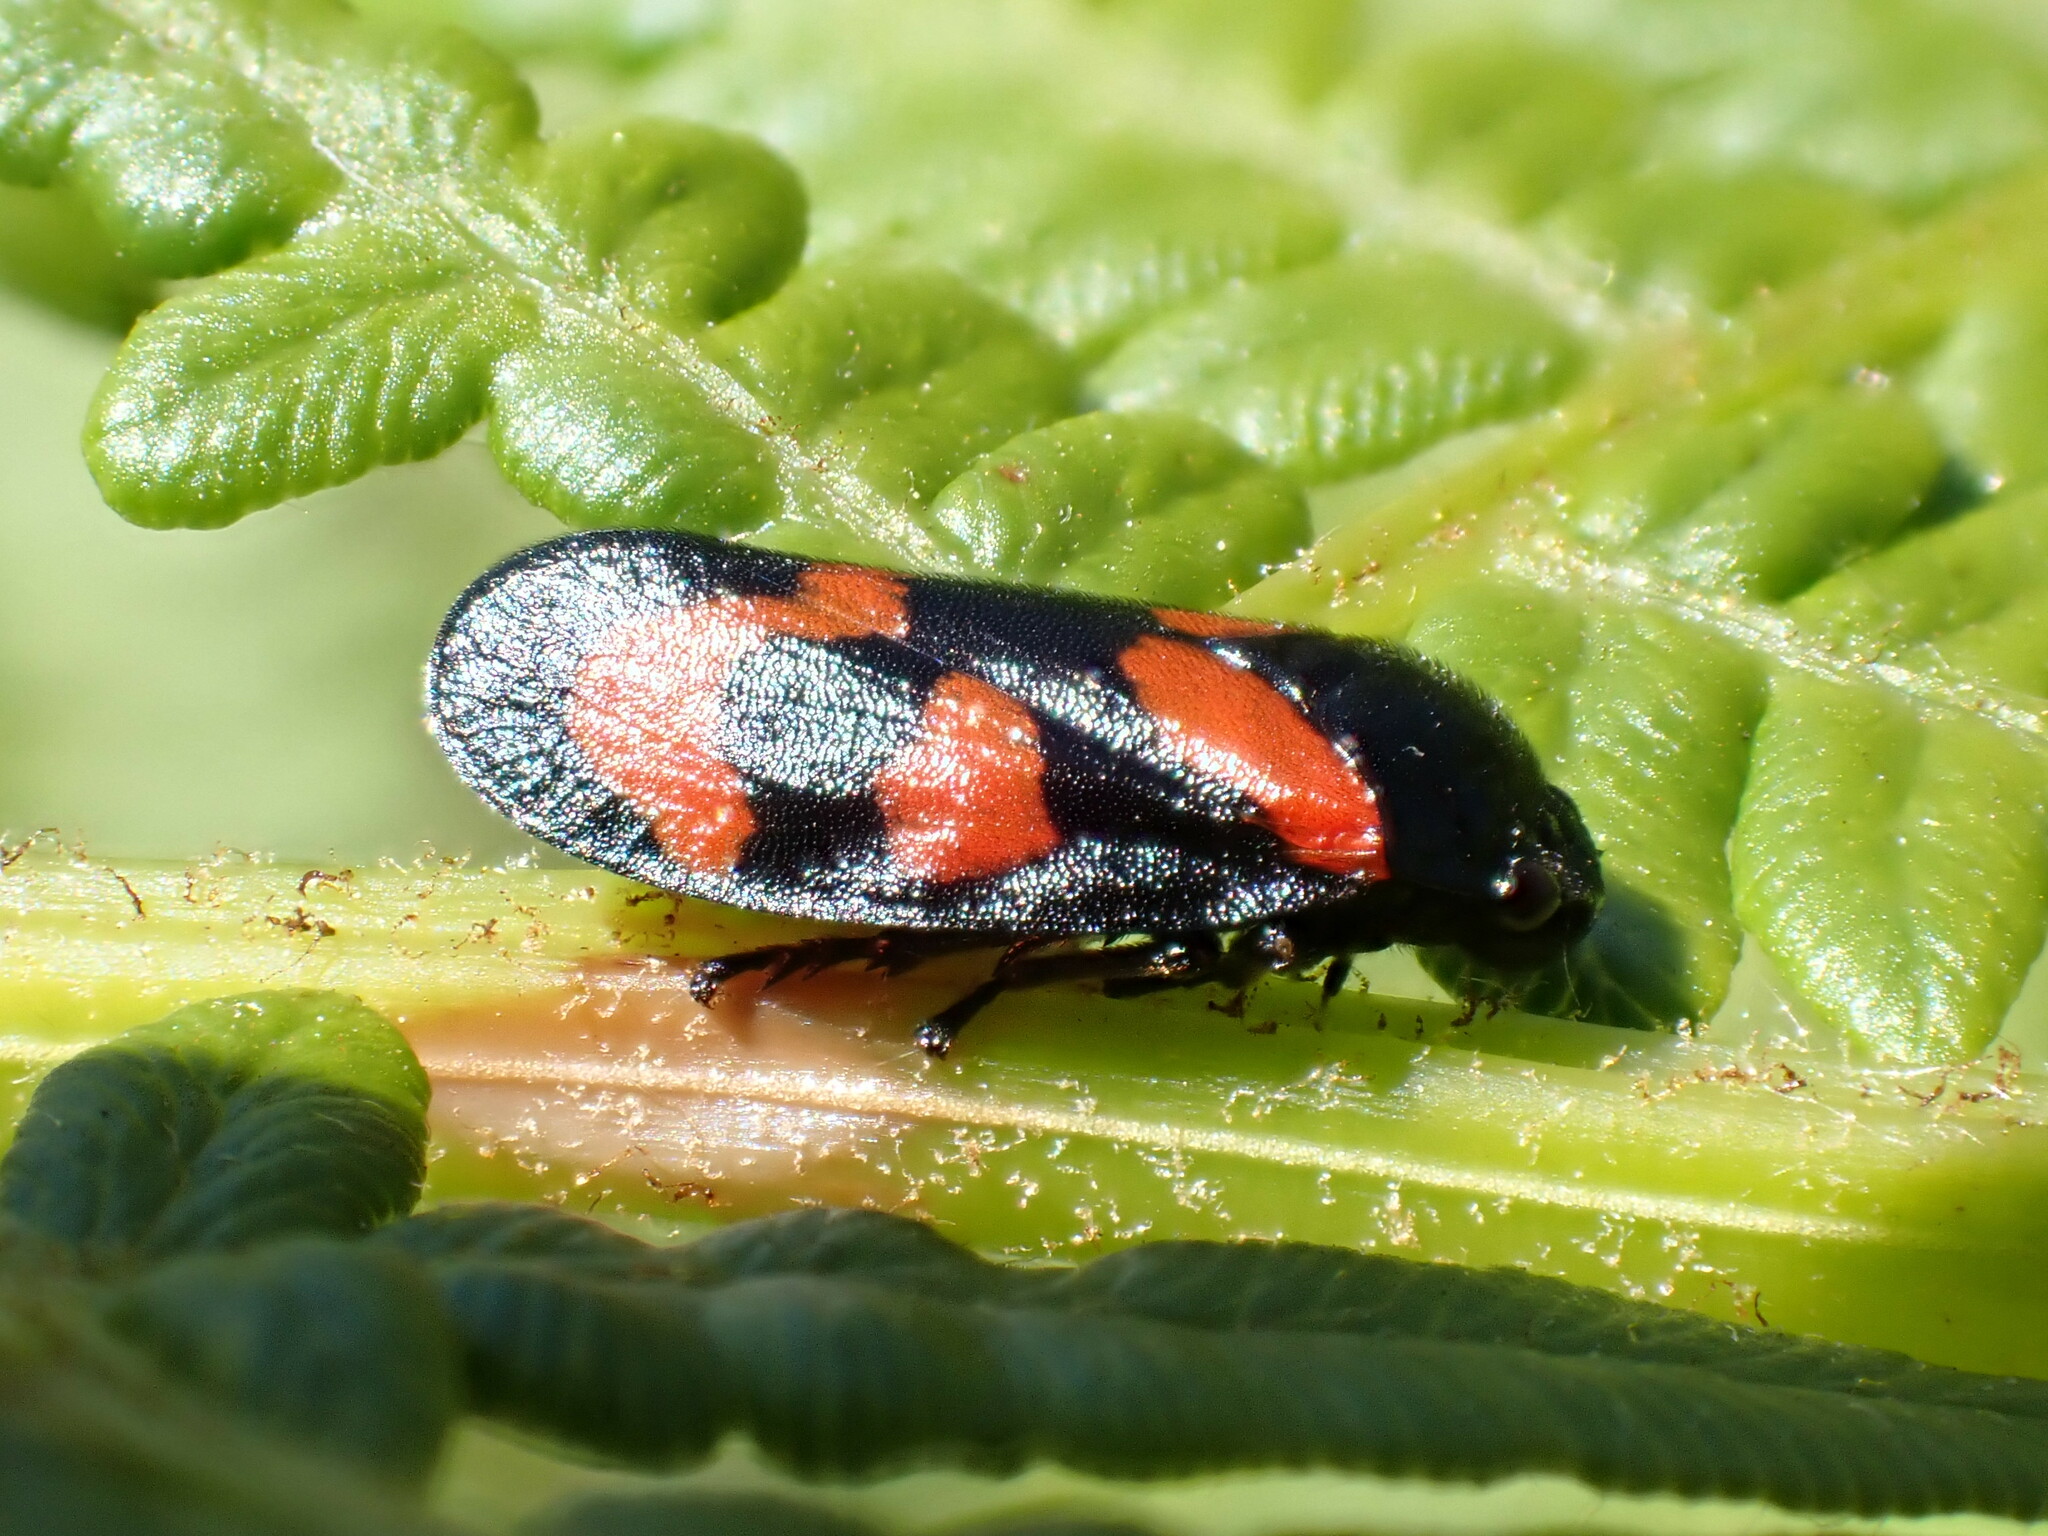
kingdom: Animalia
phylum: Arthropoda
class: Insecta
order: Hemiptera
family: Cercopidae
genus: Cercopis
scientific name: Cercopis vulnerata
